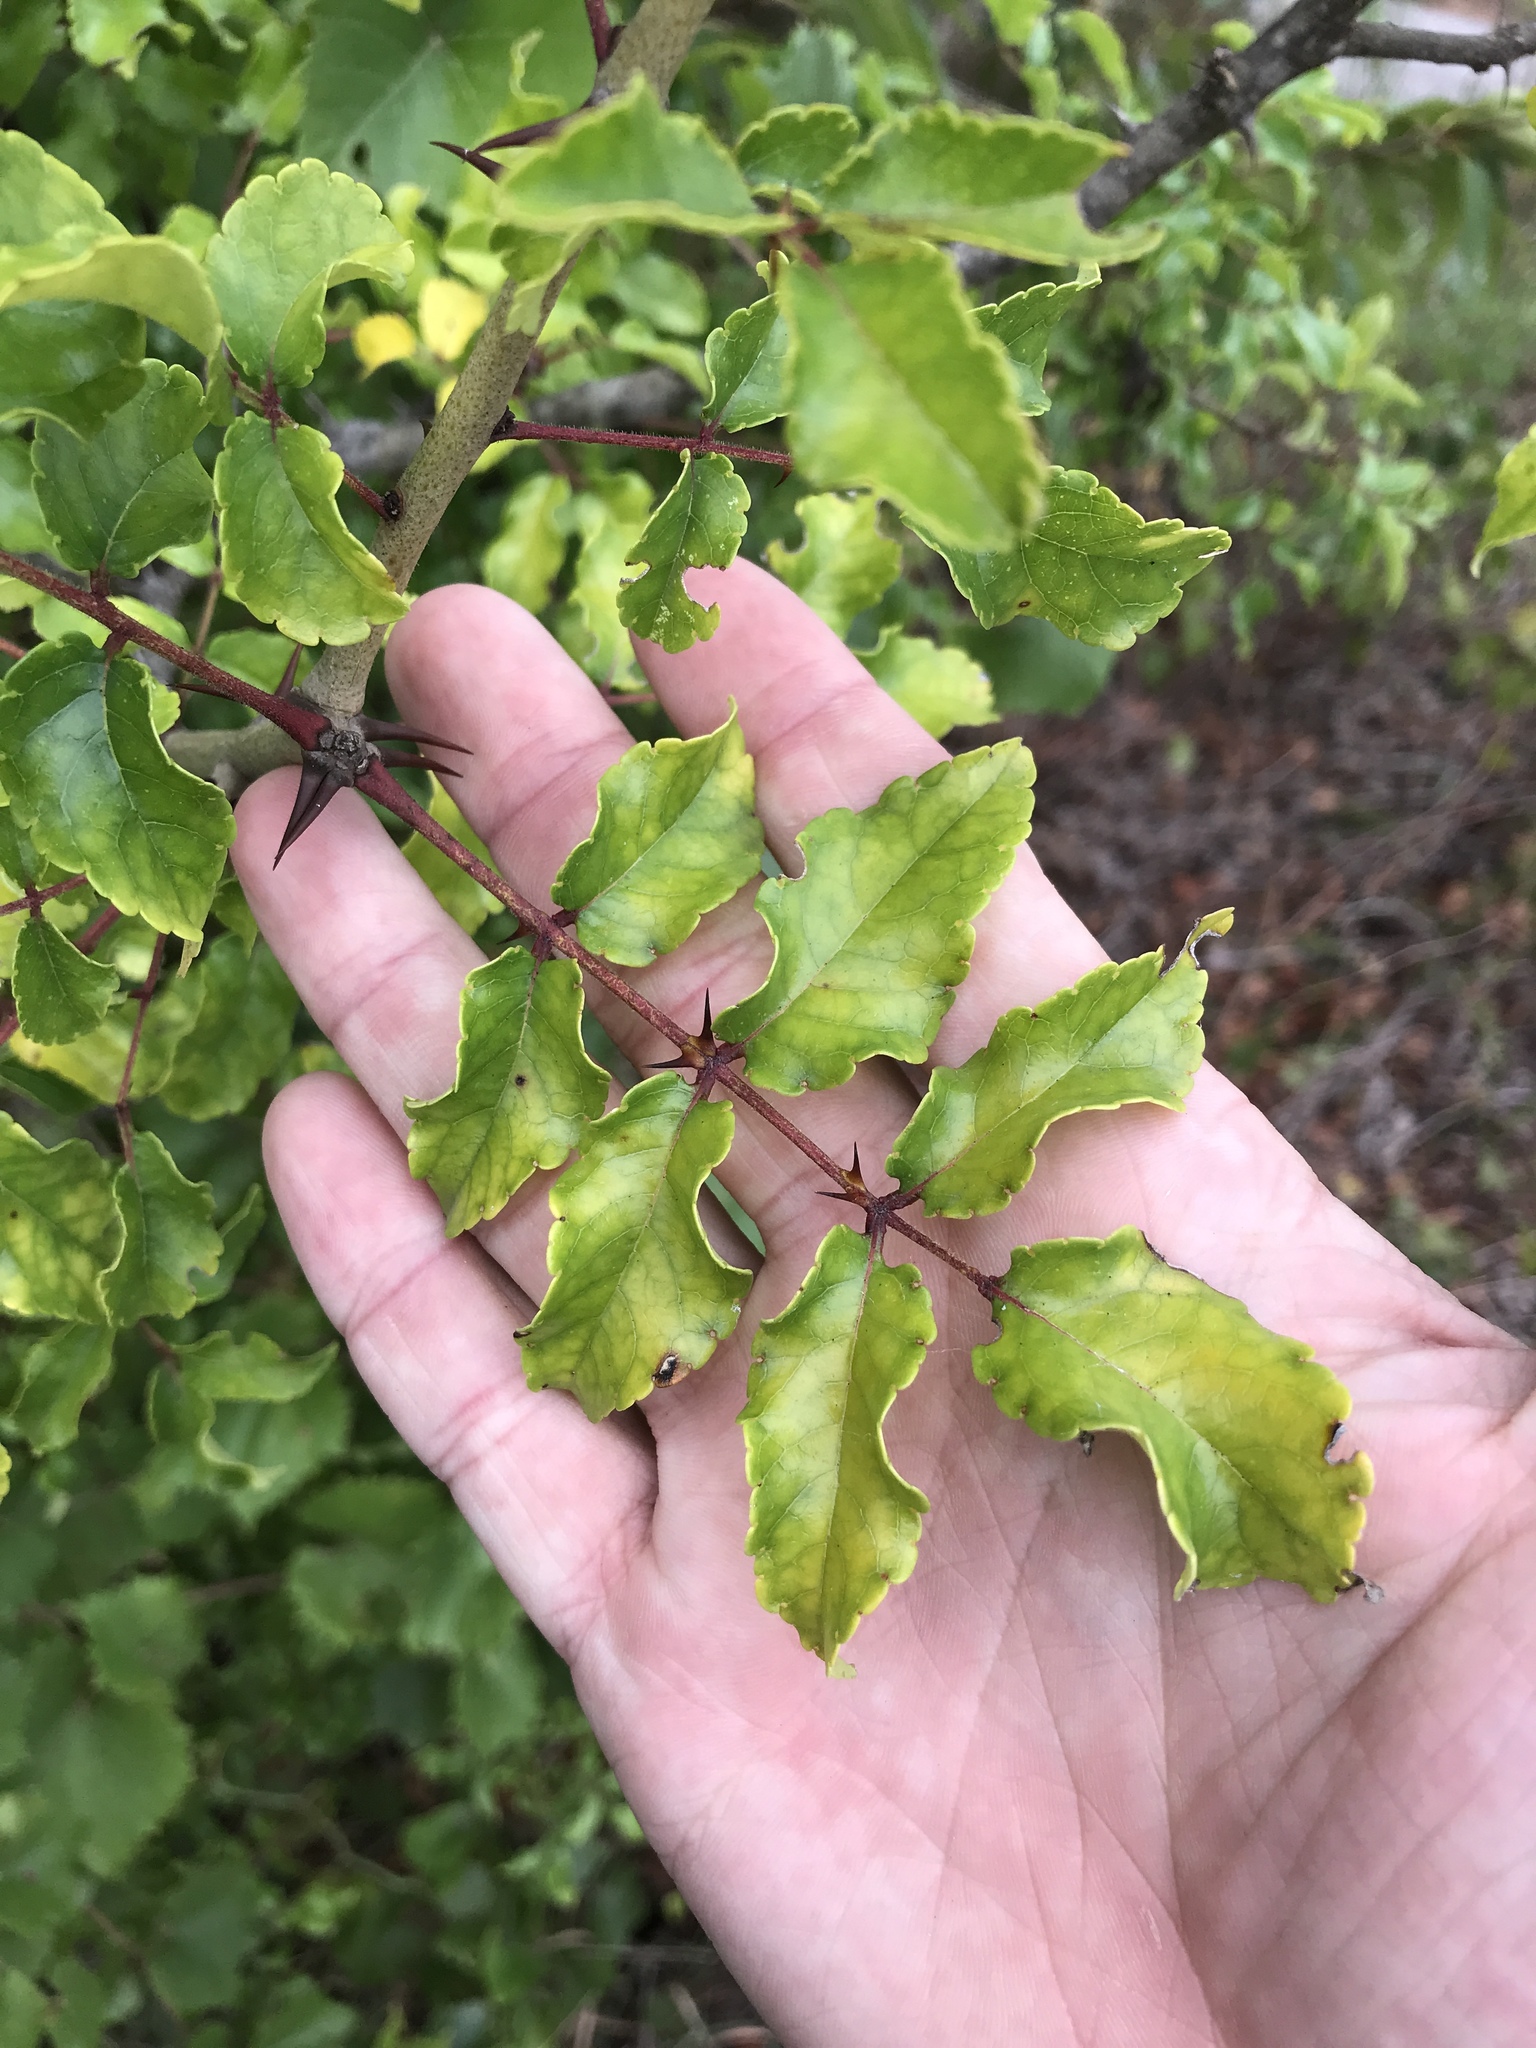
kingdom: Plantae
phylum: Tracheophyta
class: Magnoliopsida
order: Sapindales
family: Rutaceae
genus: Zanthoxylum
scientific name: Zanthoxylum clava-herculis
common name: Hercules'-club
